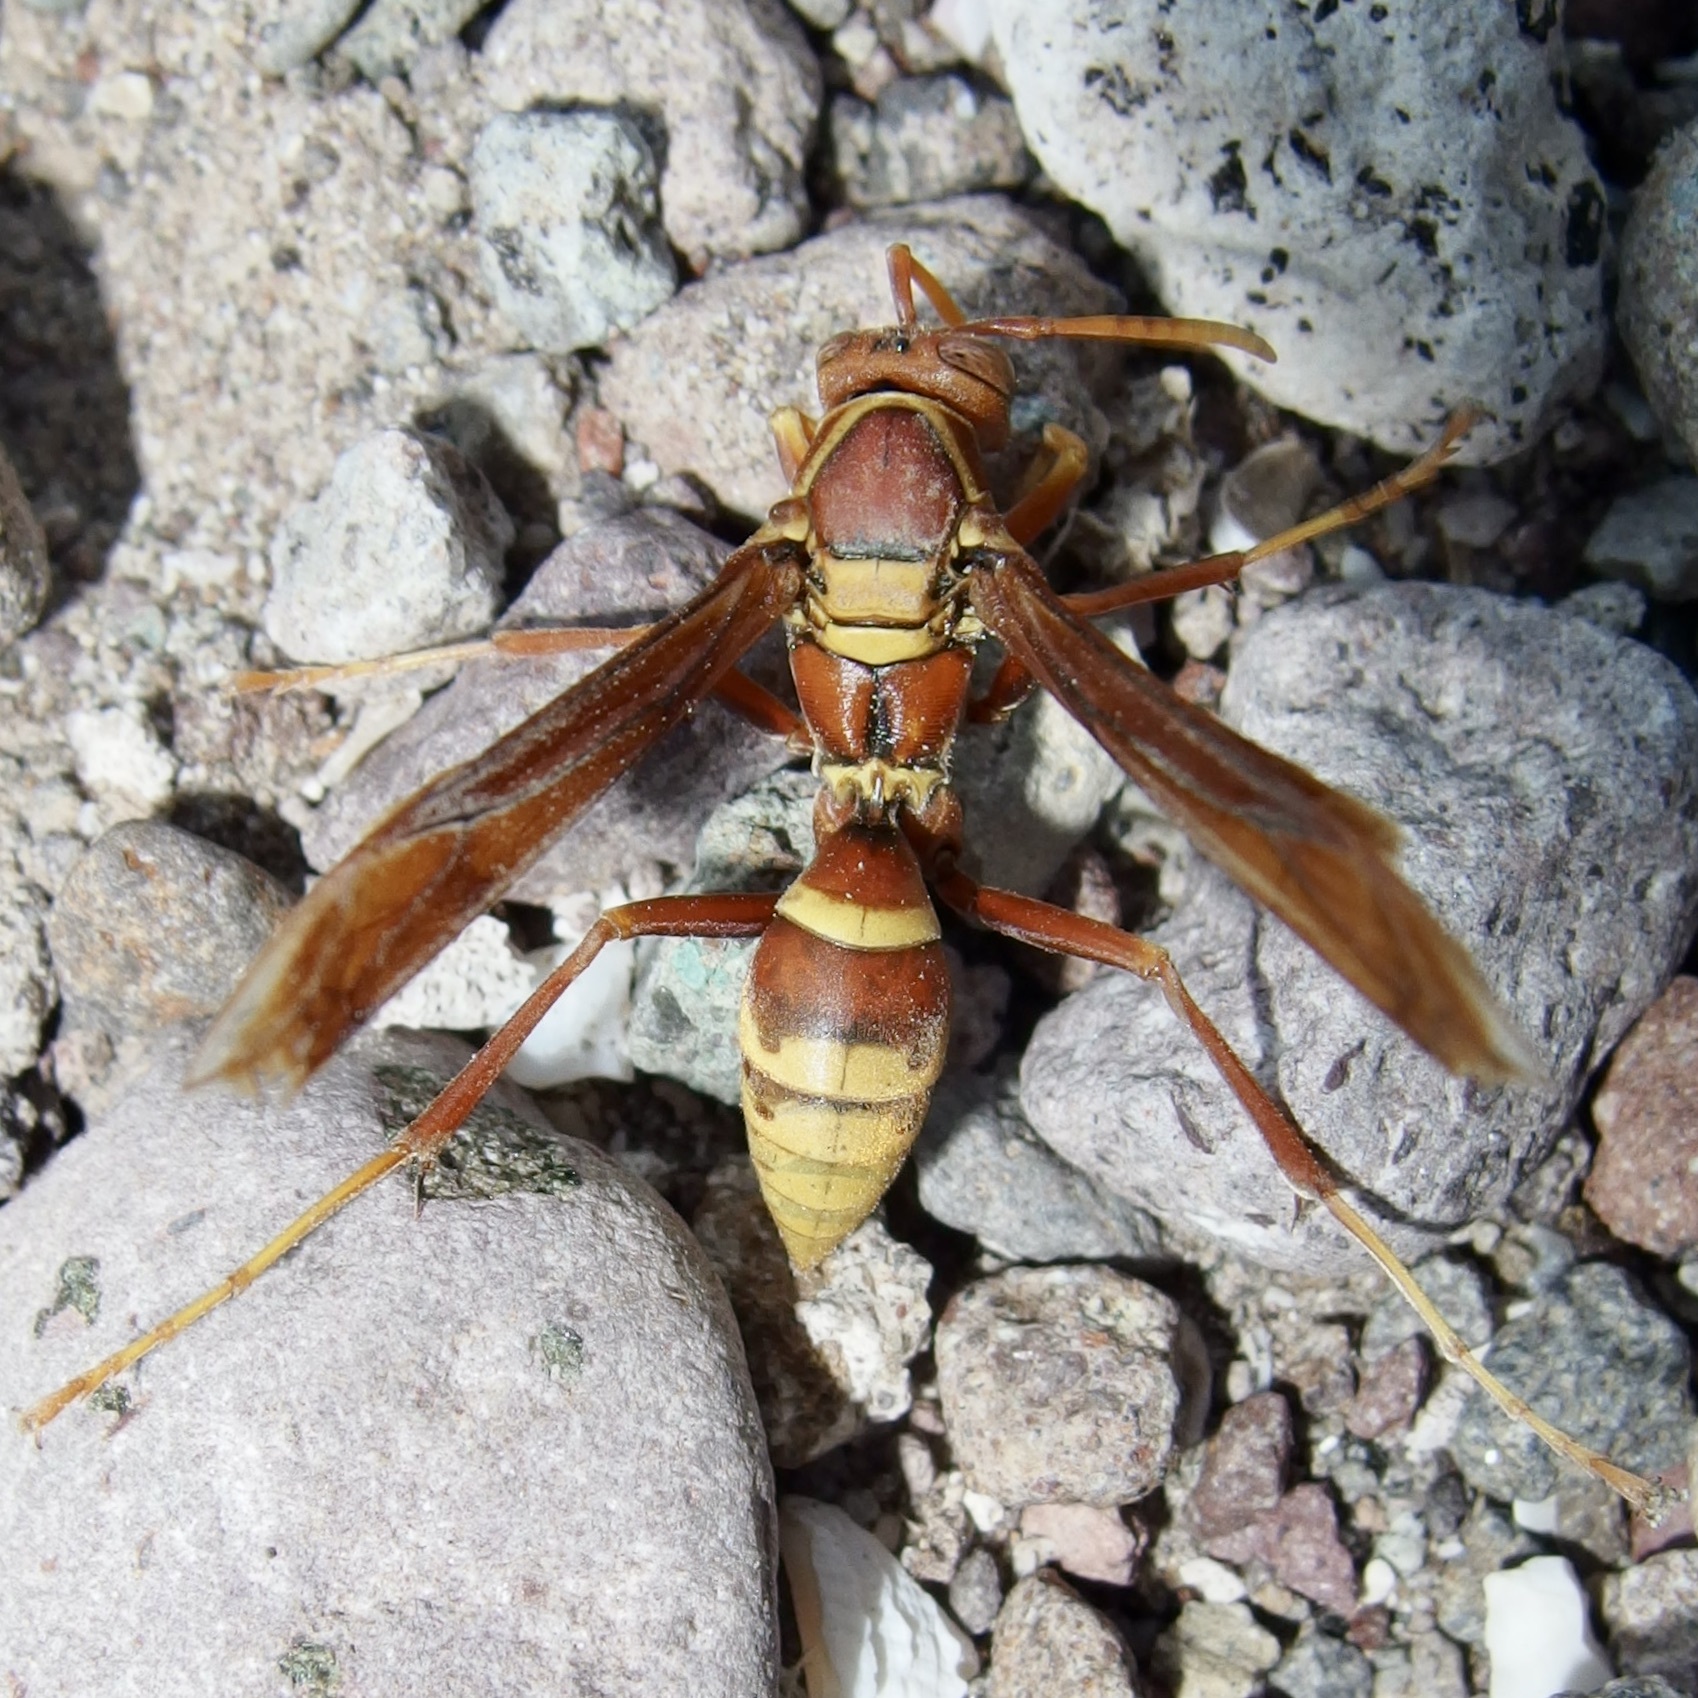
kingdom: Animalia
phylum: Arthropoda
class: Insecta
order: Hymenoptera
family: Eumenidae
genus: Polistes
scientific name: Polistes palmarum
